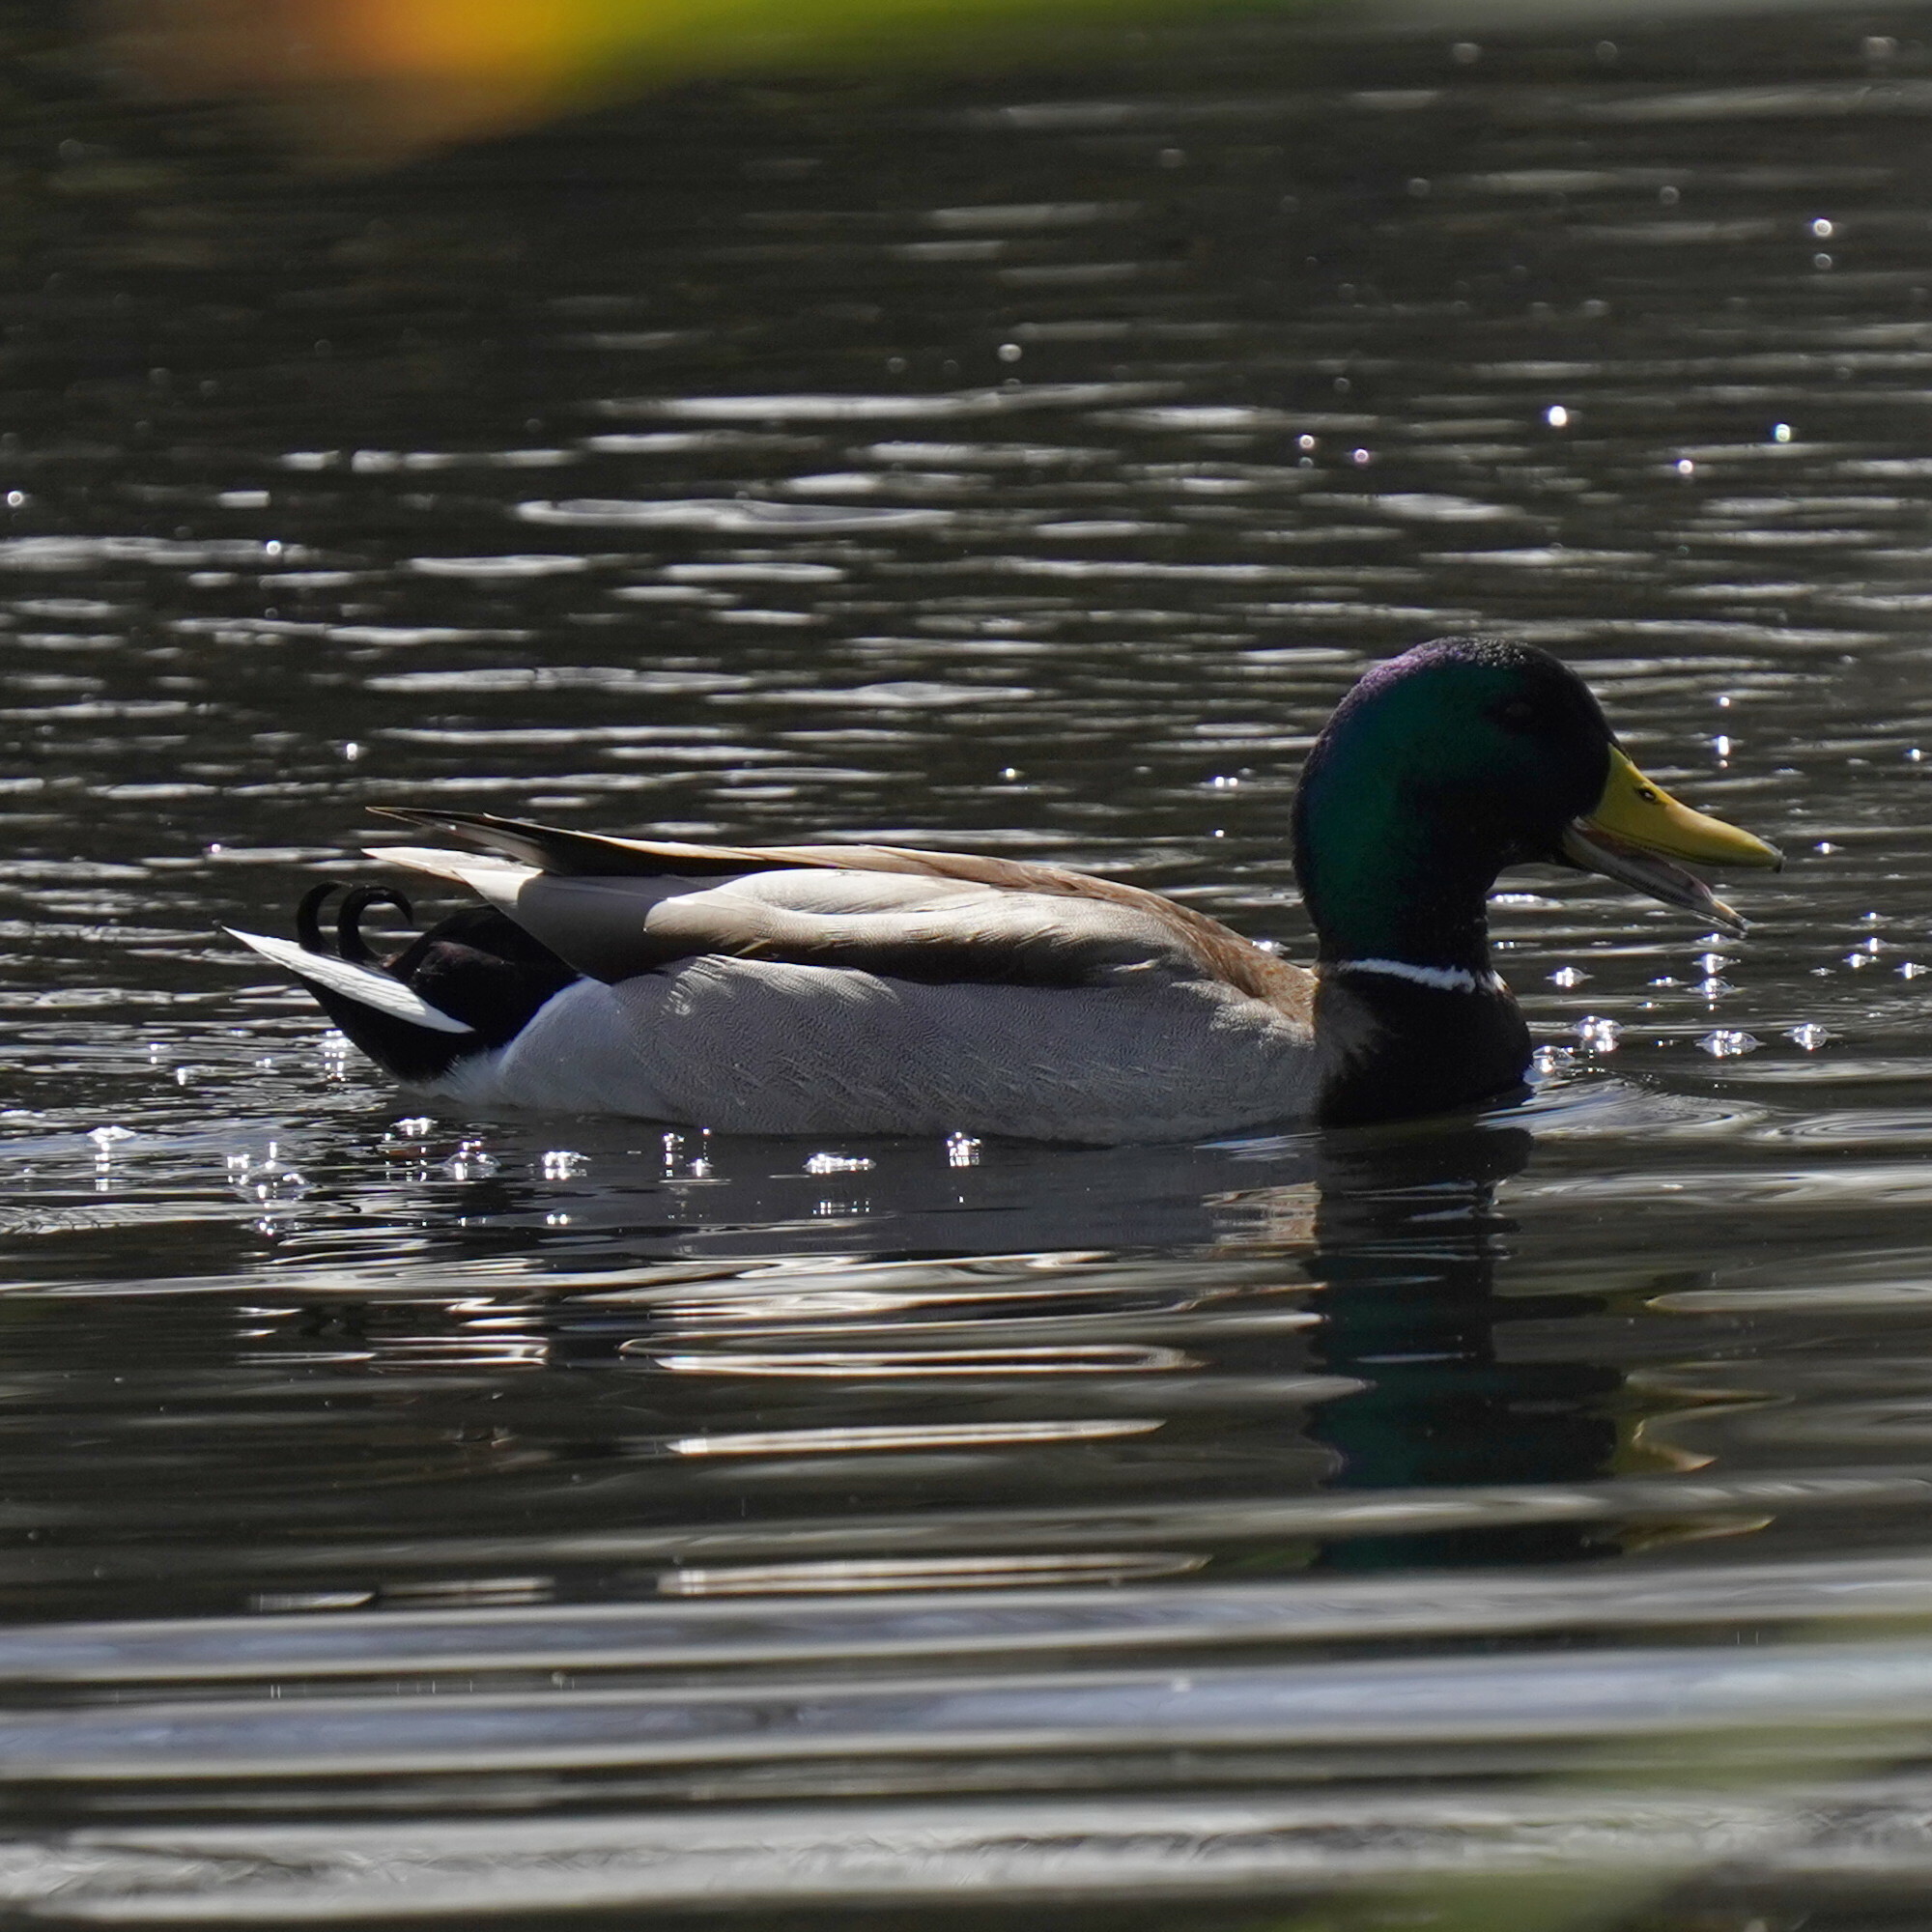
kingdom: Animalia
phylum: Chordata
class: Aves
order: Anseriformes
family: Anatidae
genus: Anas
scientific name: Anas platyrhynchos
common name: Mallard
